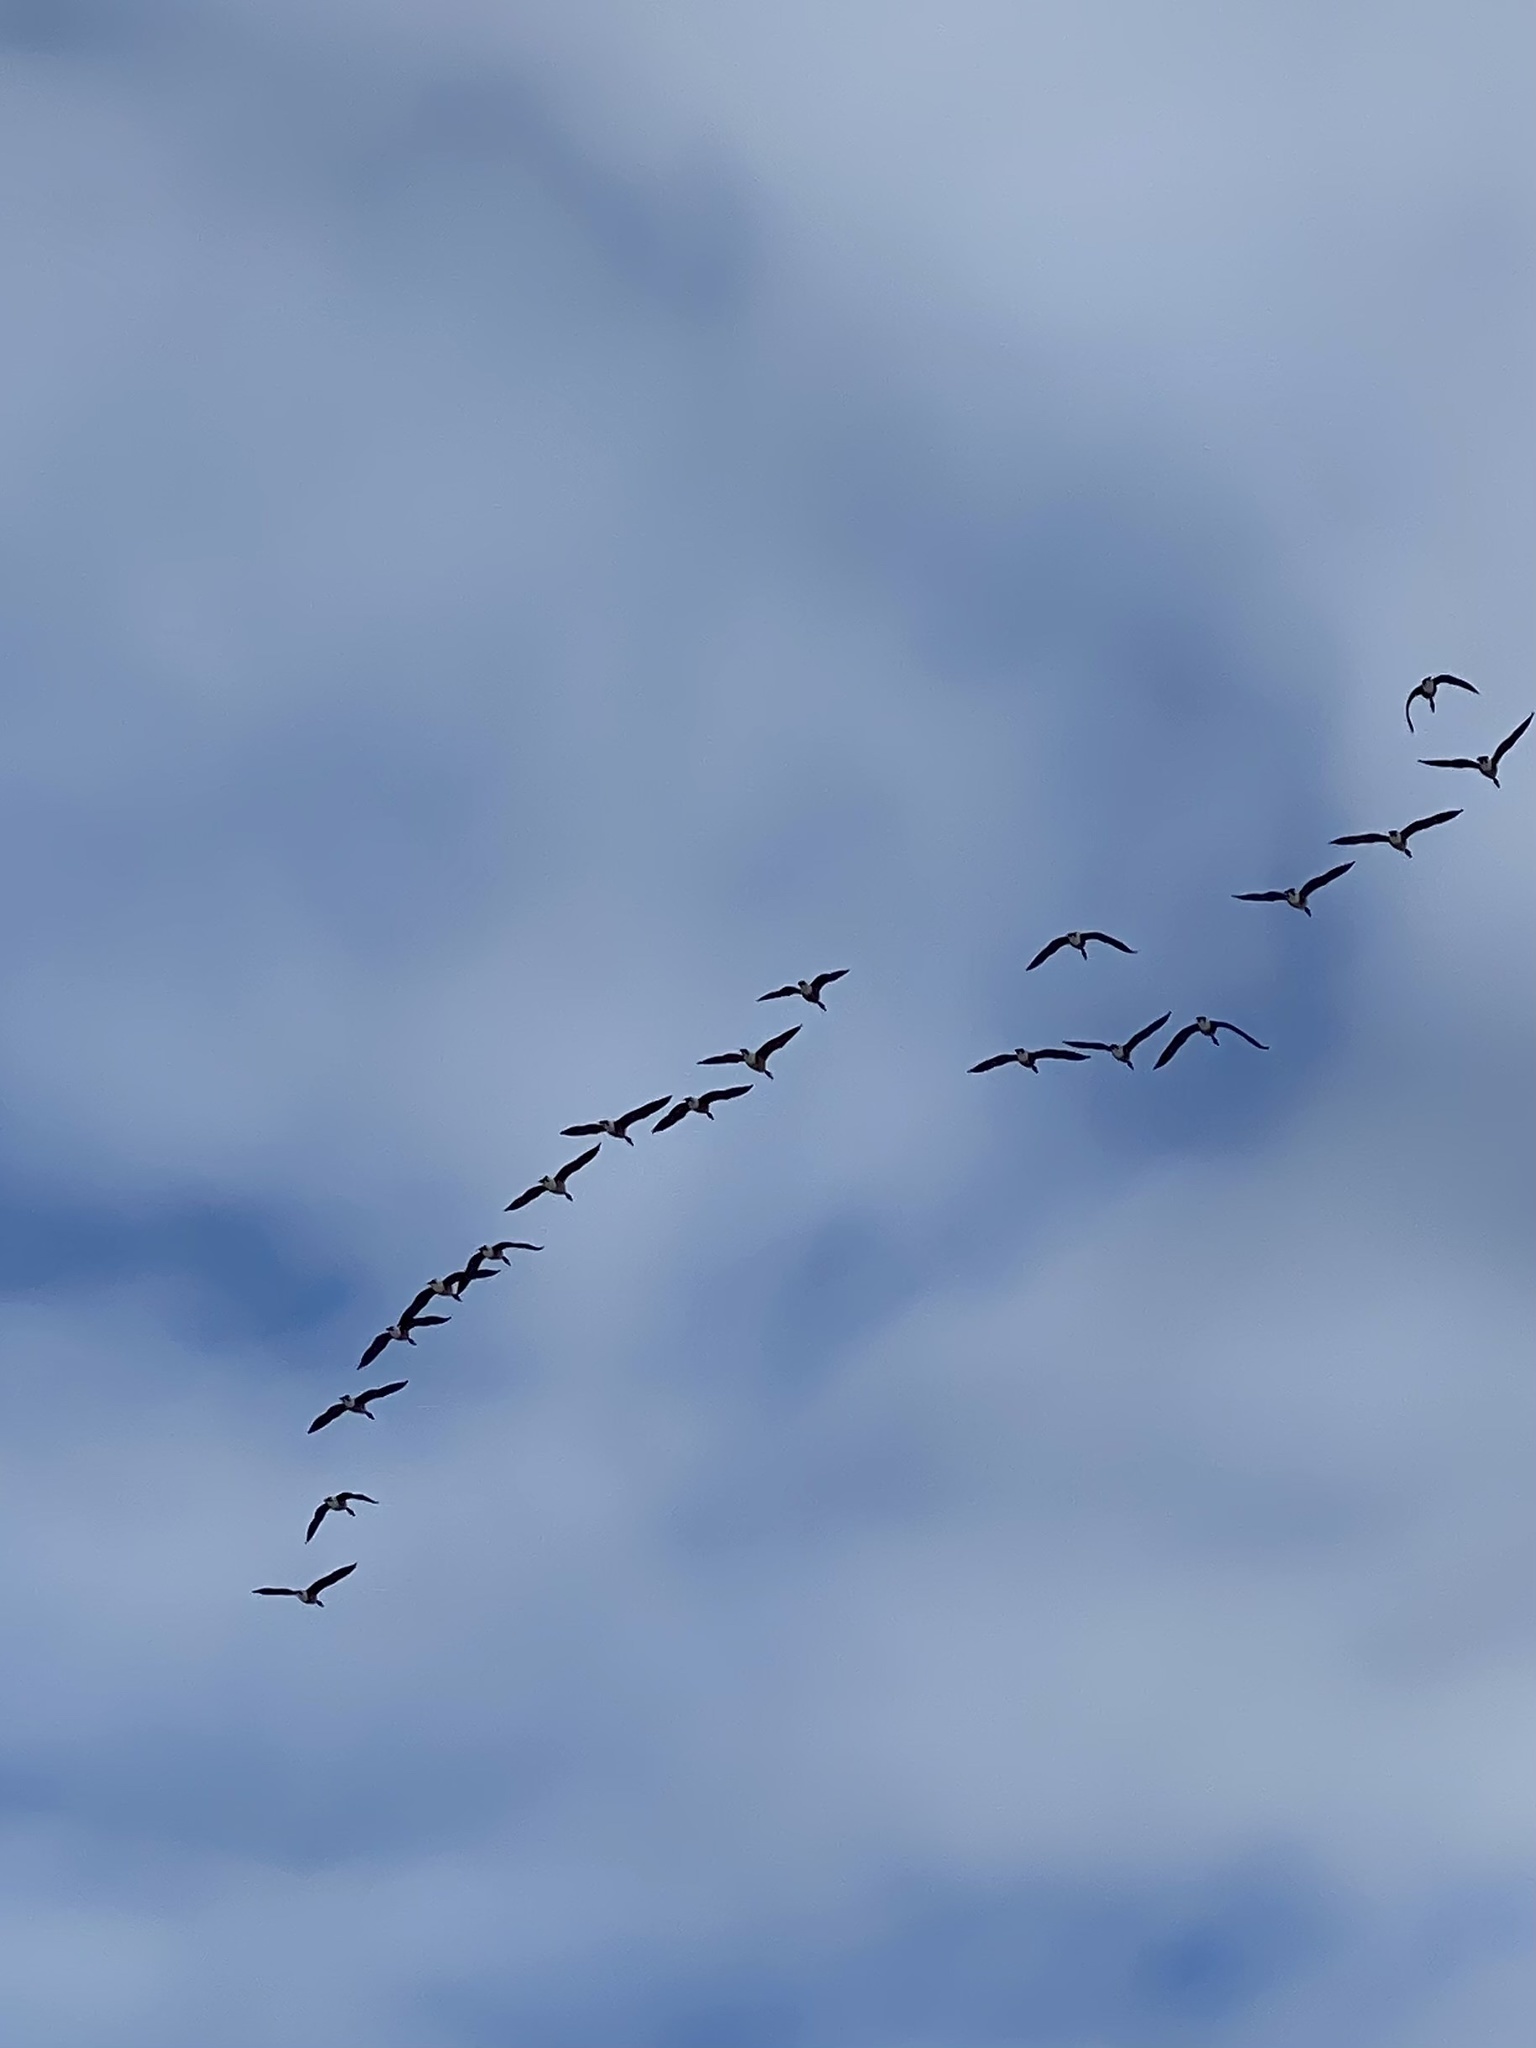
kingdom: Animalia
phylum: Chordata
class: Aves
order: Anseriformes
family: Anatidae
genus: Branta
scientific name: Branta canadensis
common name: Canada goose
